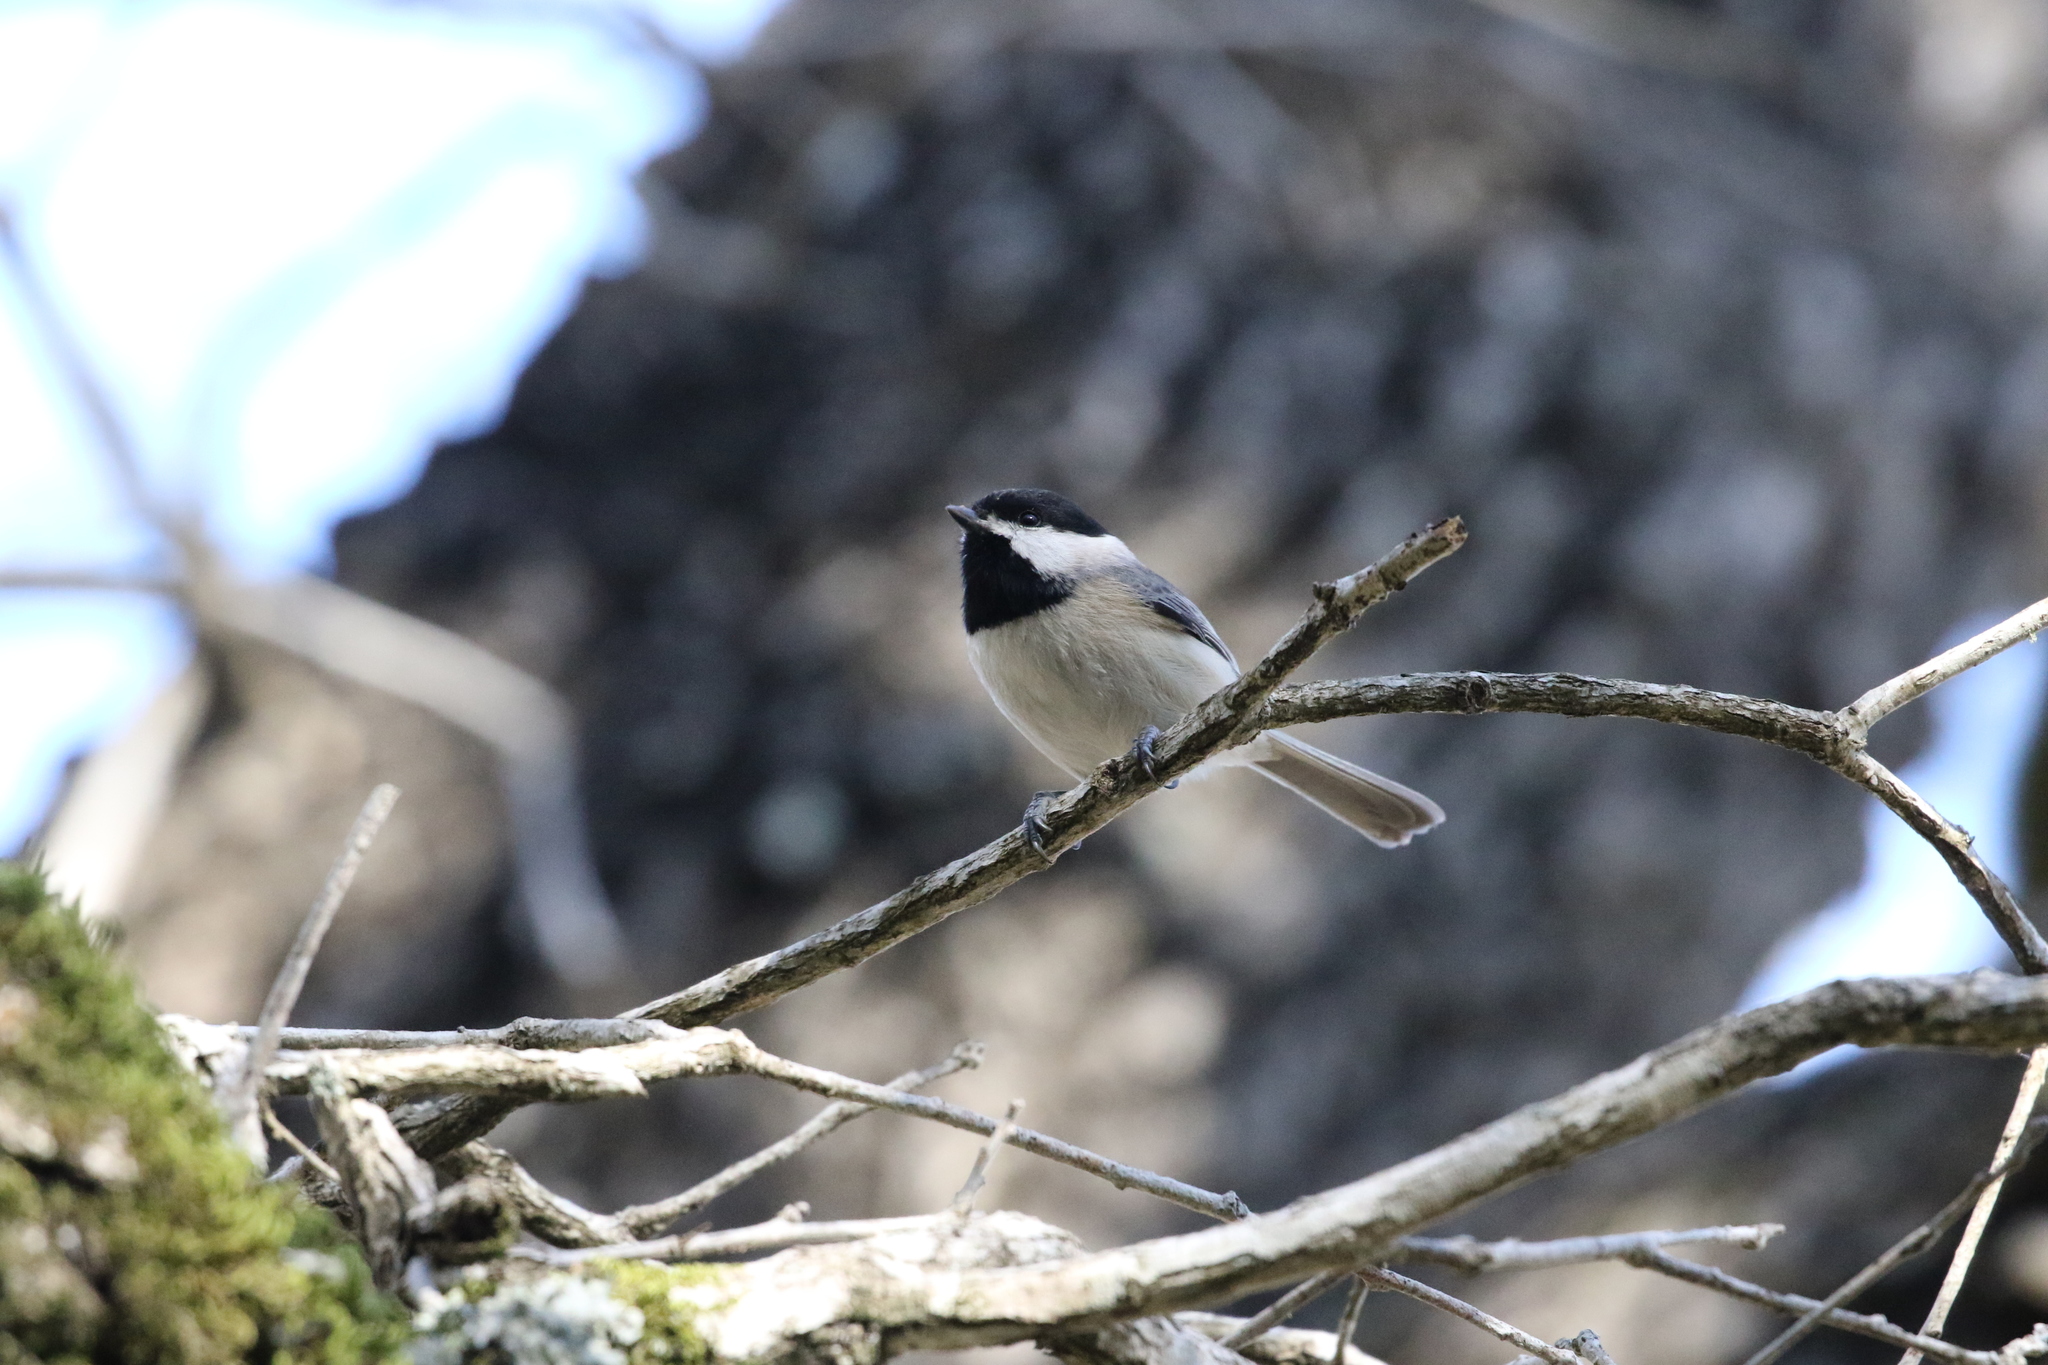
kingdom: Animalia
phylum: Chordata
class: Aves
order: Passeriformes
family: Paridae
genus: Poecile
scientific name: Poecile carolinensis
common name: Carolina chickadee
